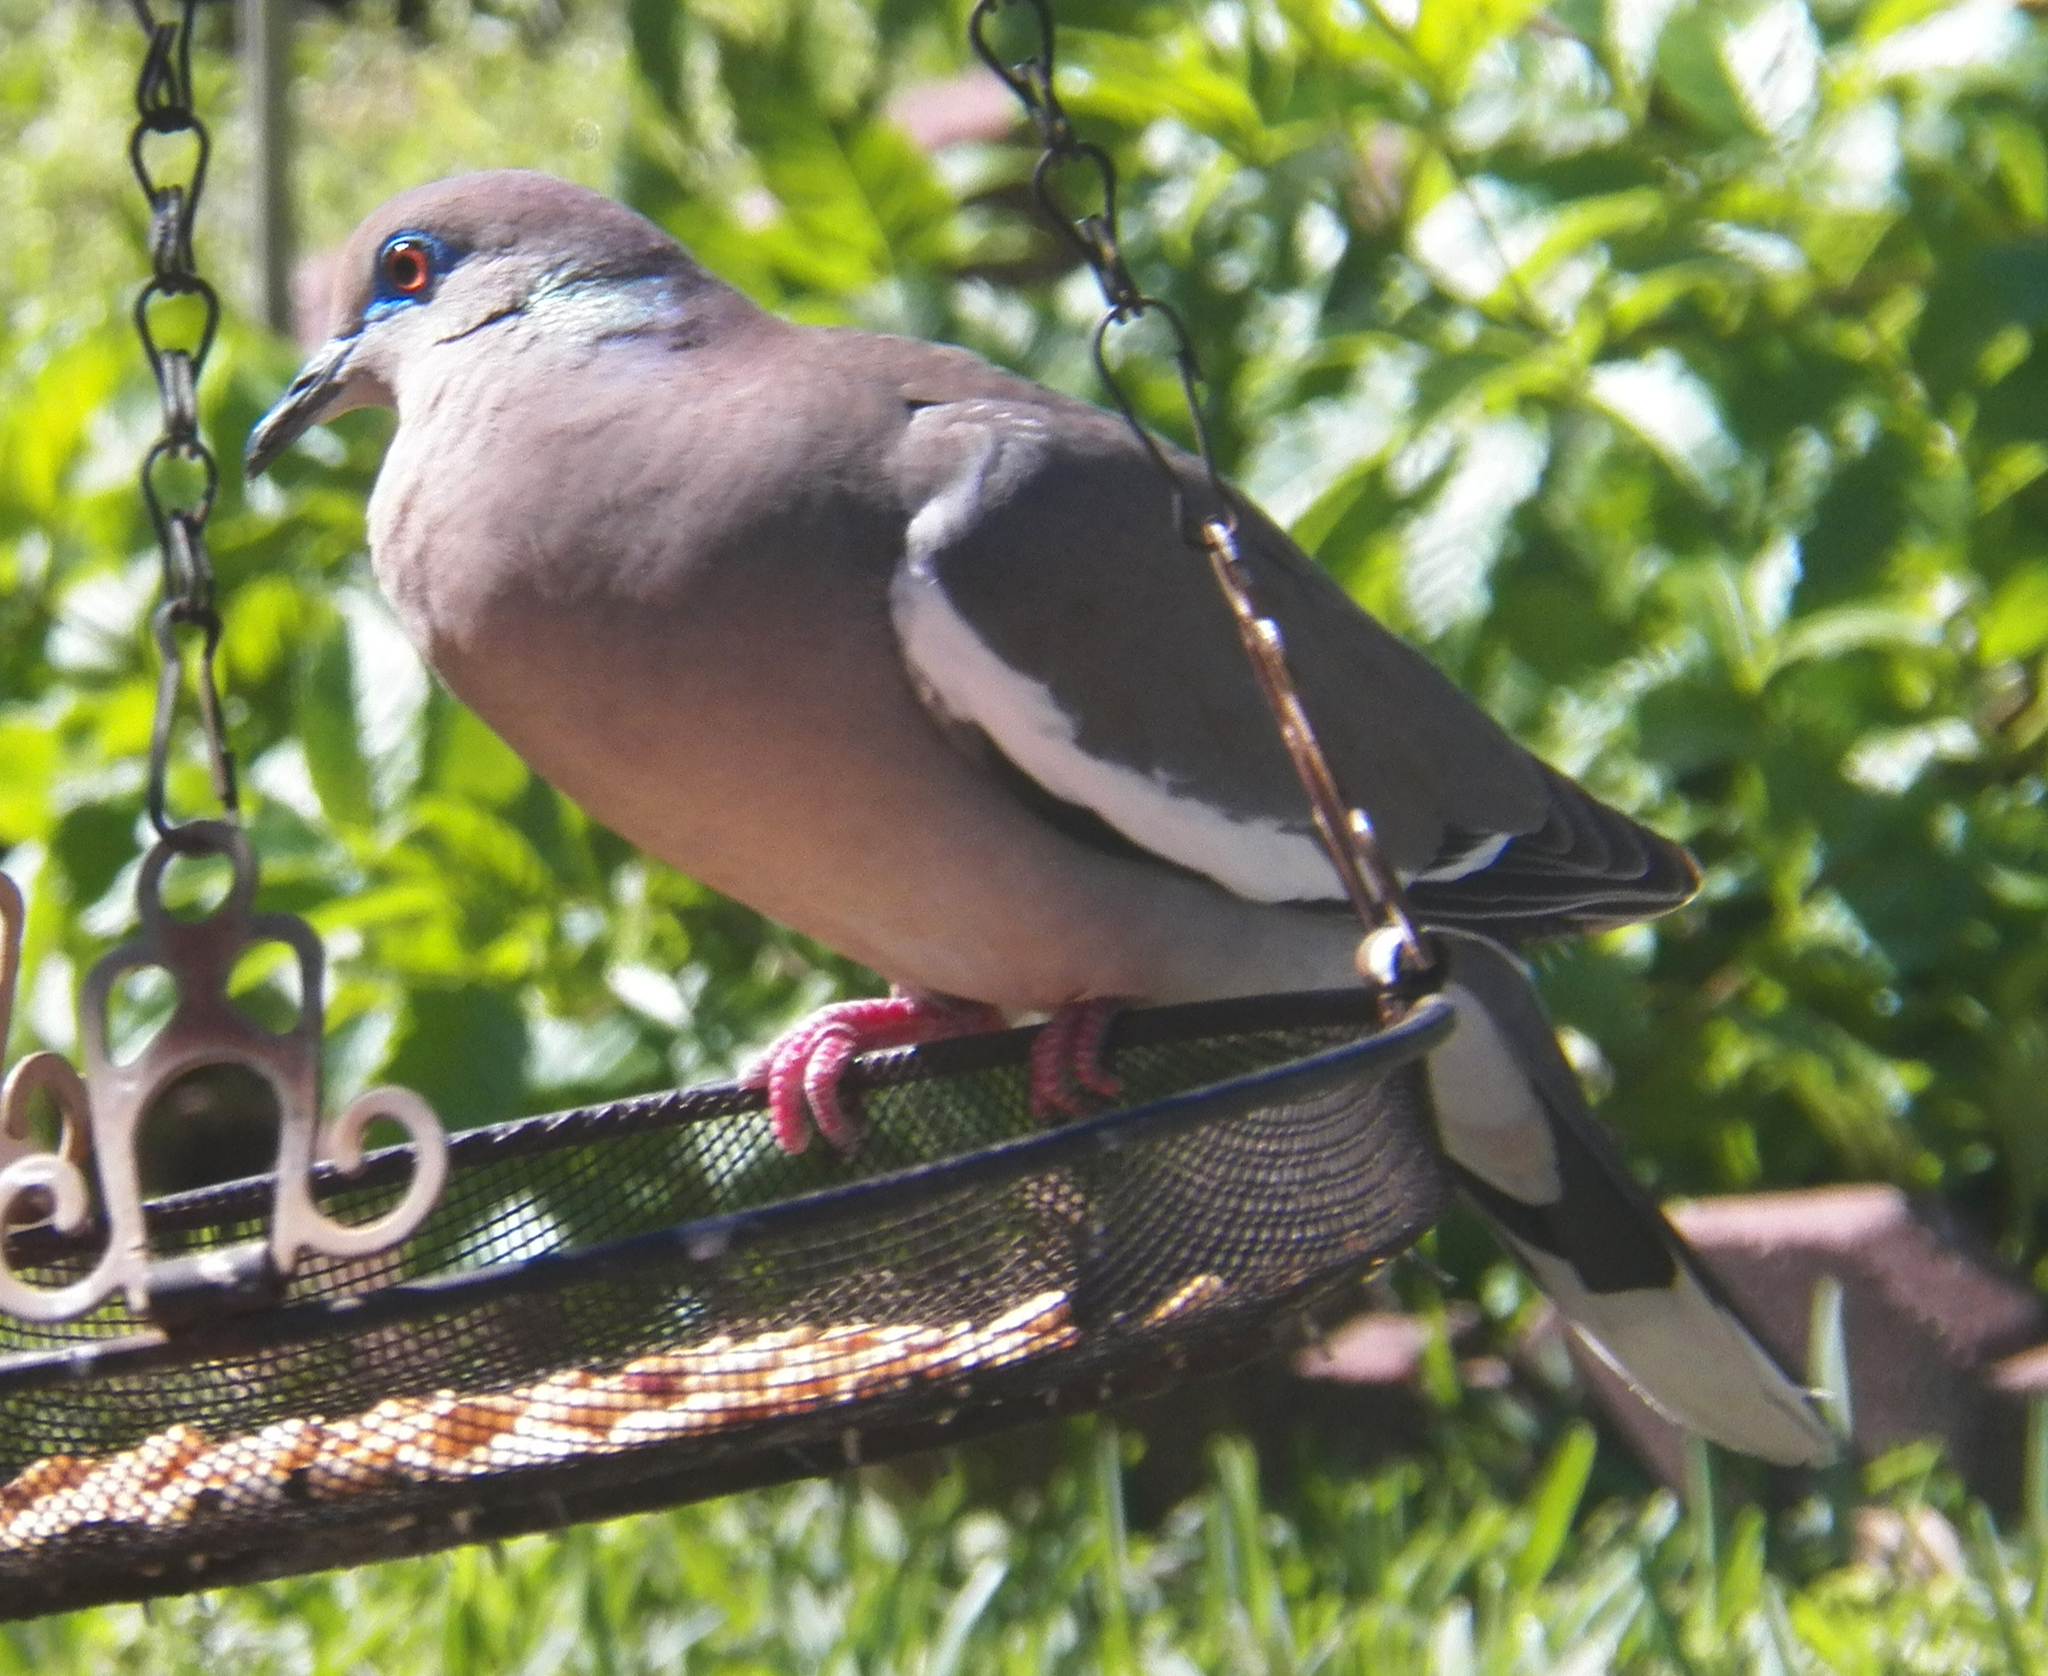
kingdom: Animalia
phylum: Chordata
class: Aves
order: Columbiformes
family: Columbidae
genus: Zenaida
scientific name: Zenaida asiatica
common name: White-winged dove
